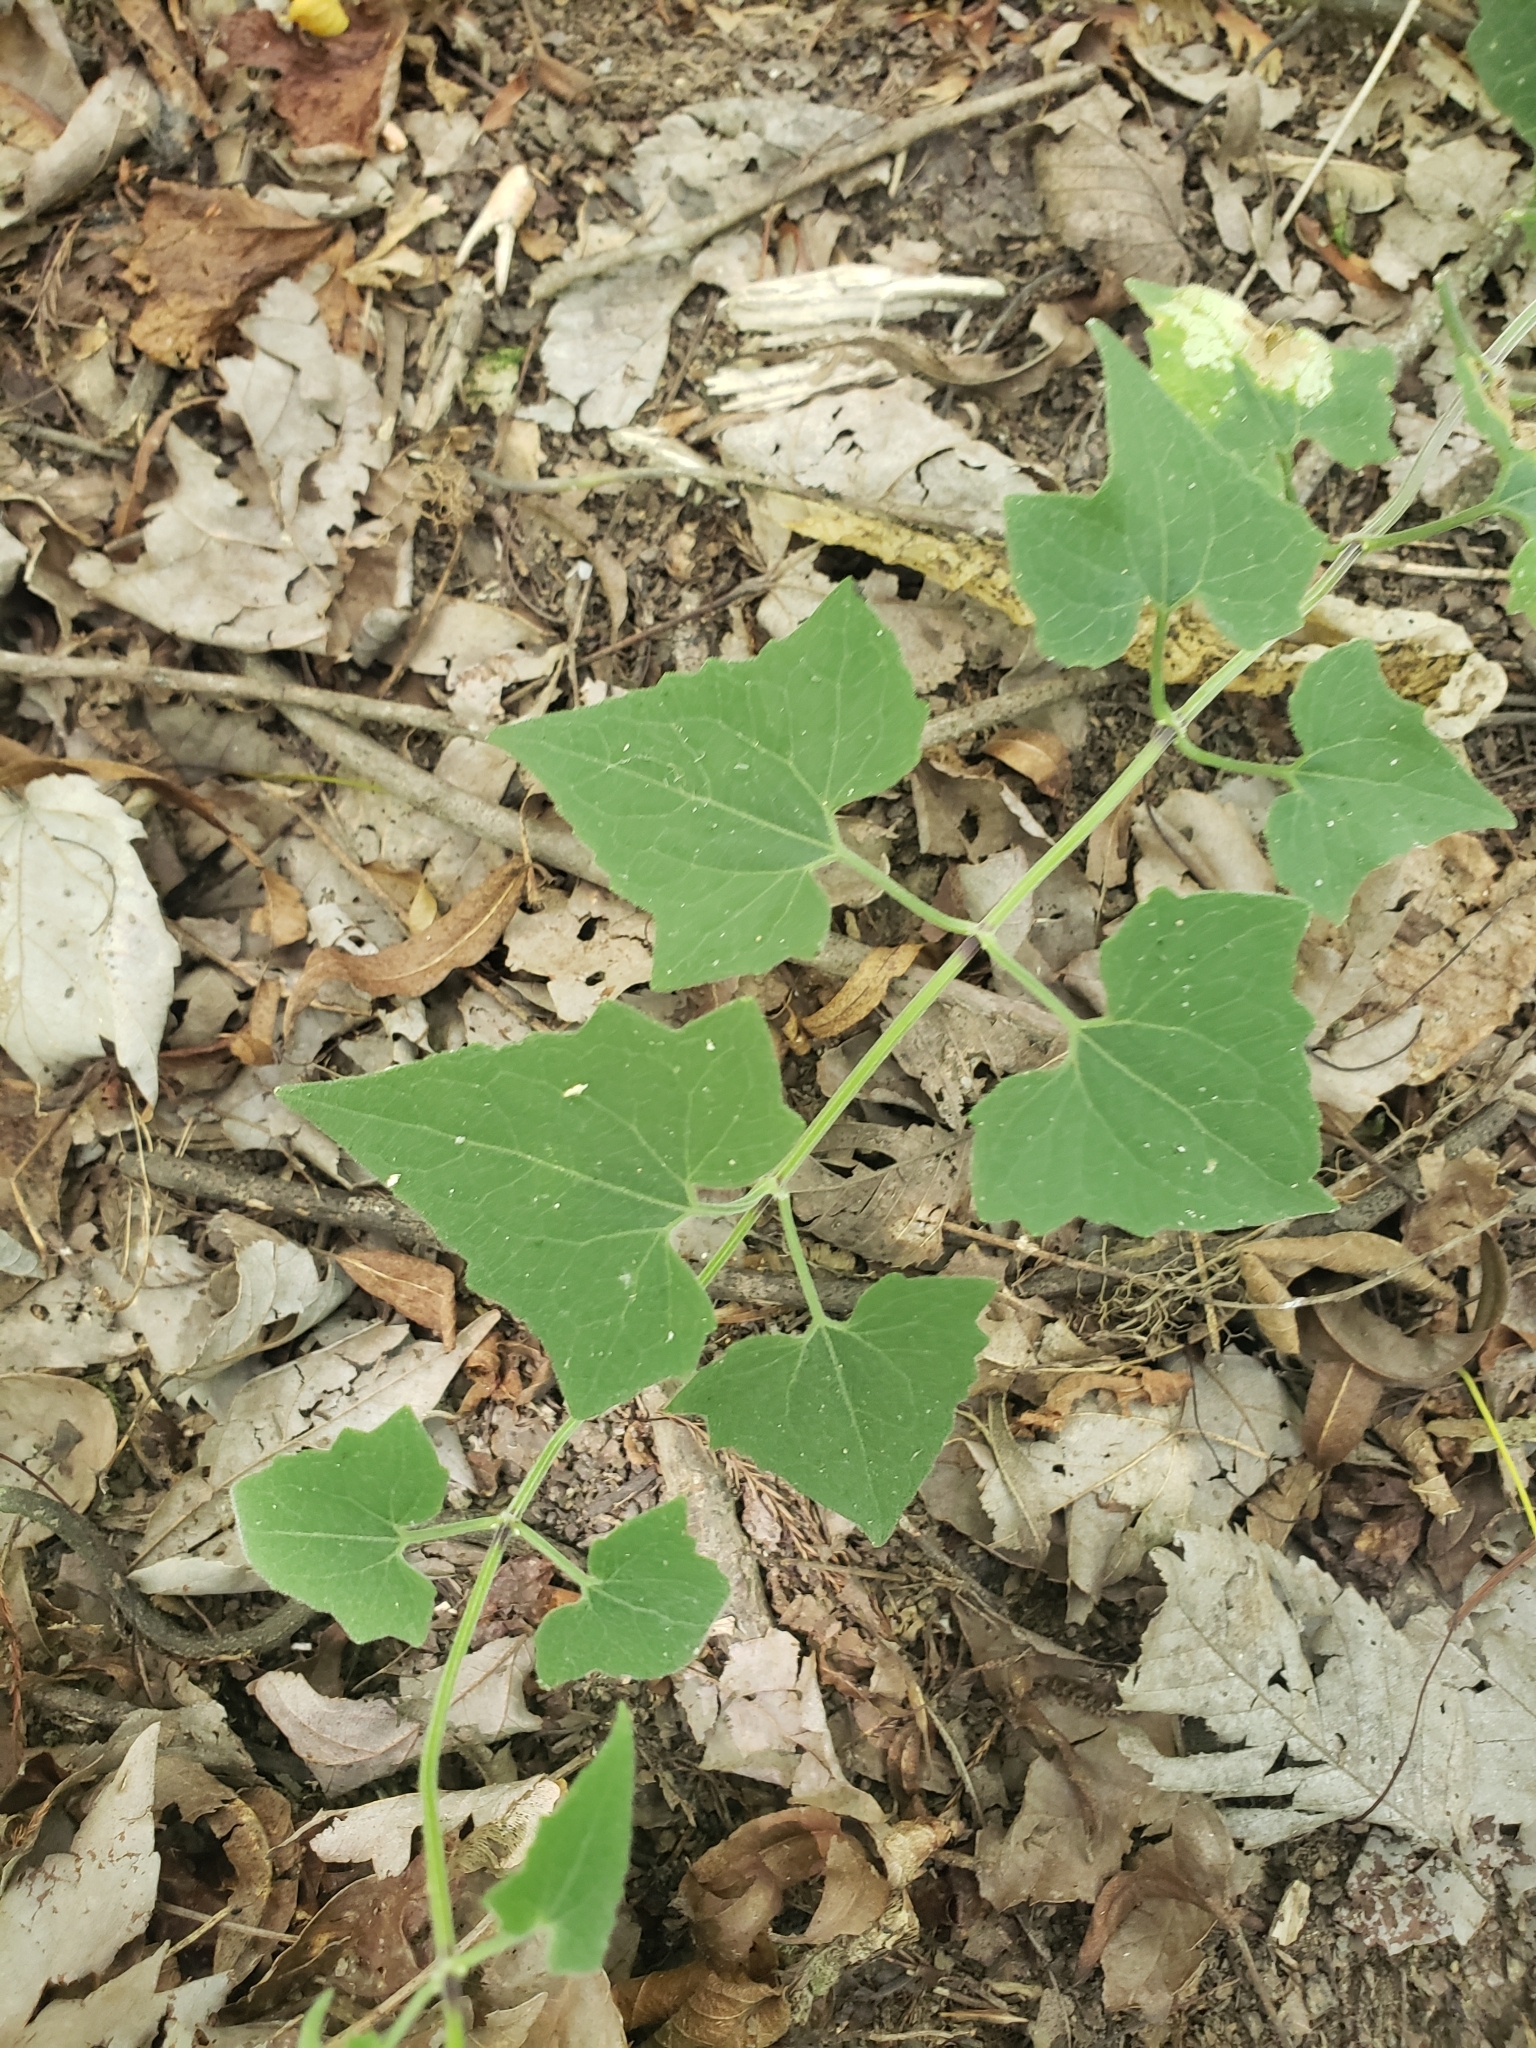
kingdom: Plantae
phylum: Tracheophyta
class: Magnoliopsida
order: Asterales
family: Asteraceae
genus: Mikania
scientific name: Mikania cordifolia
